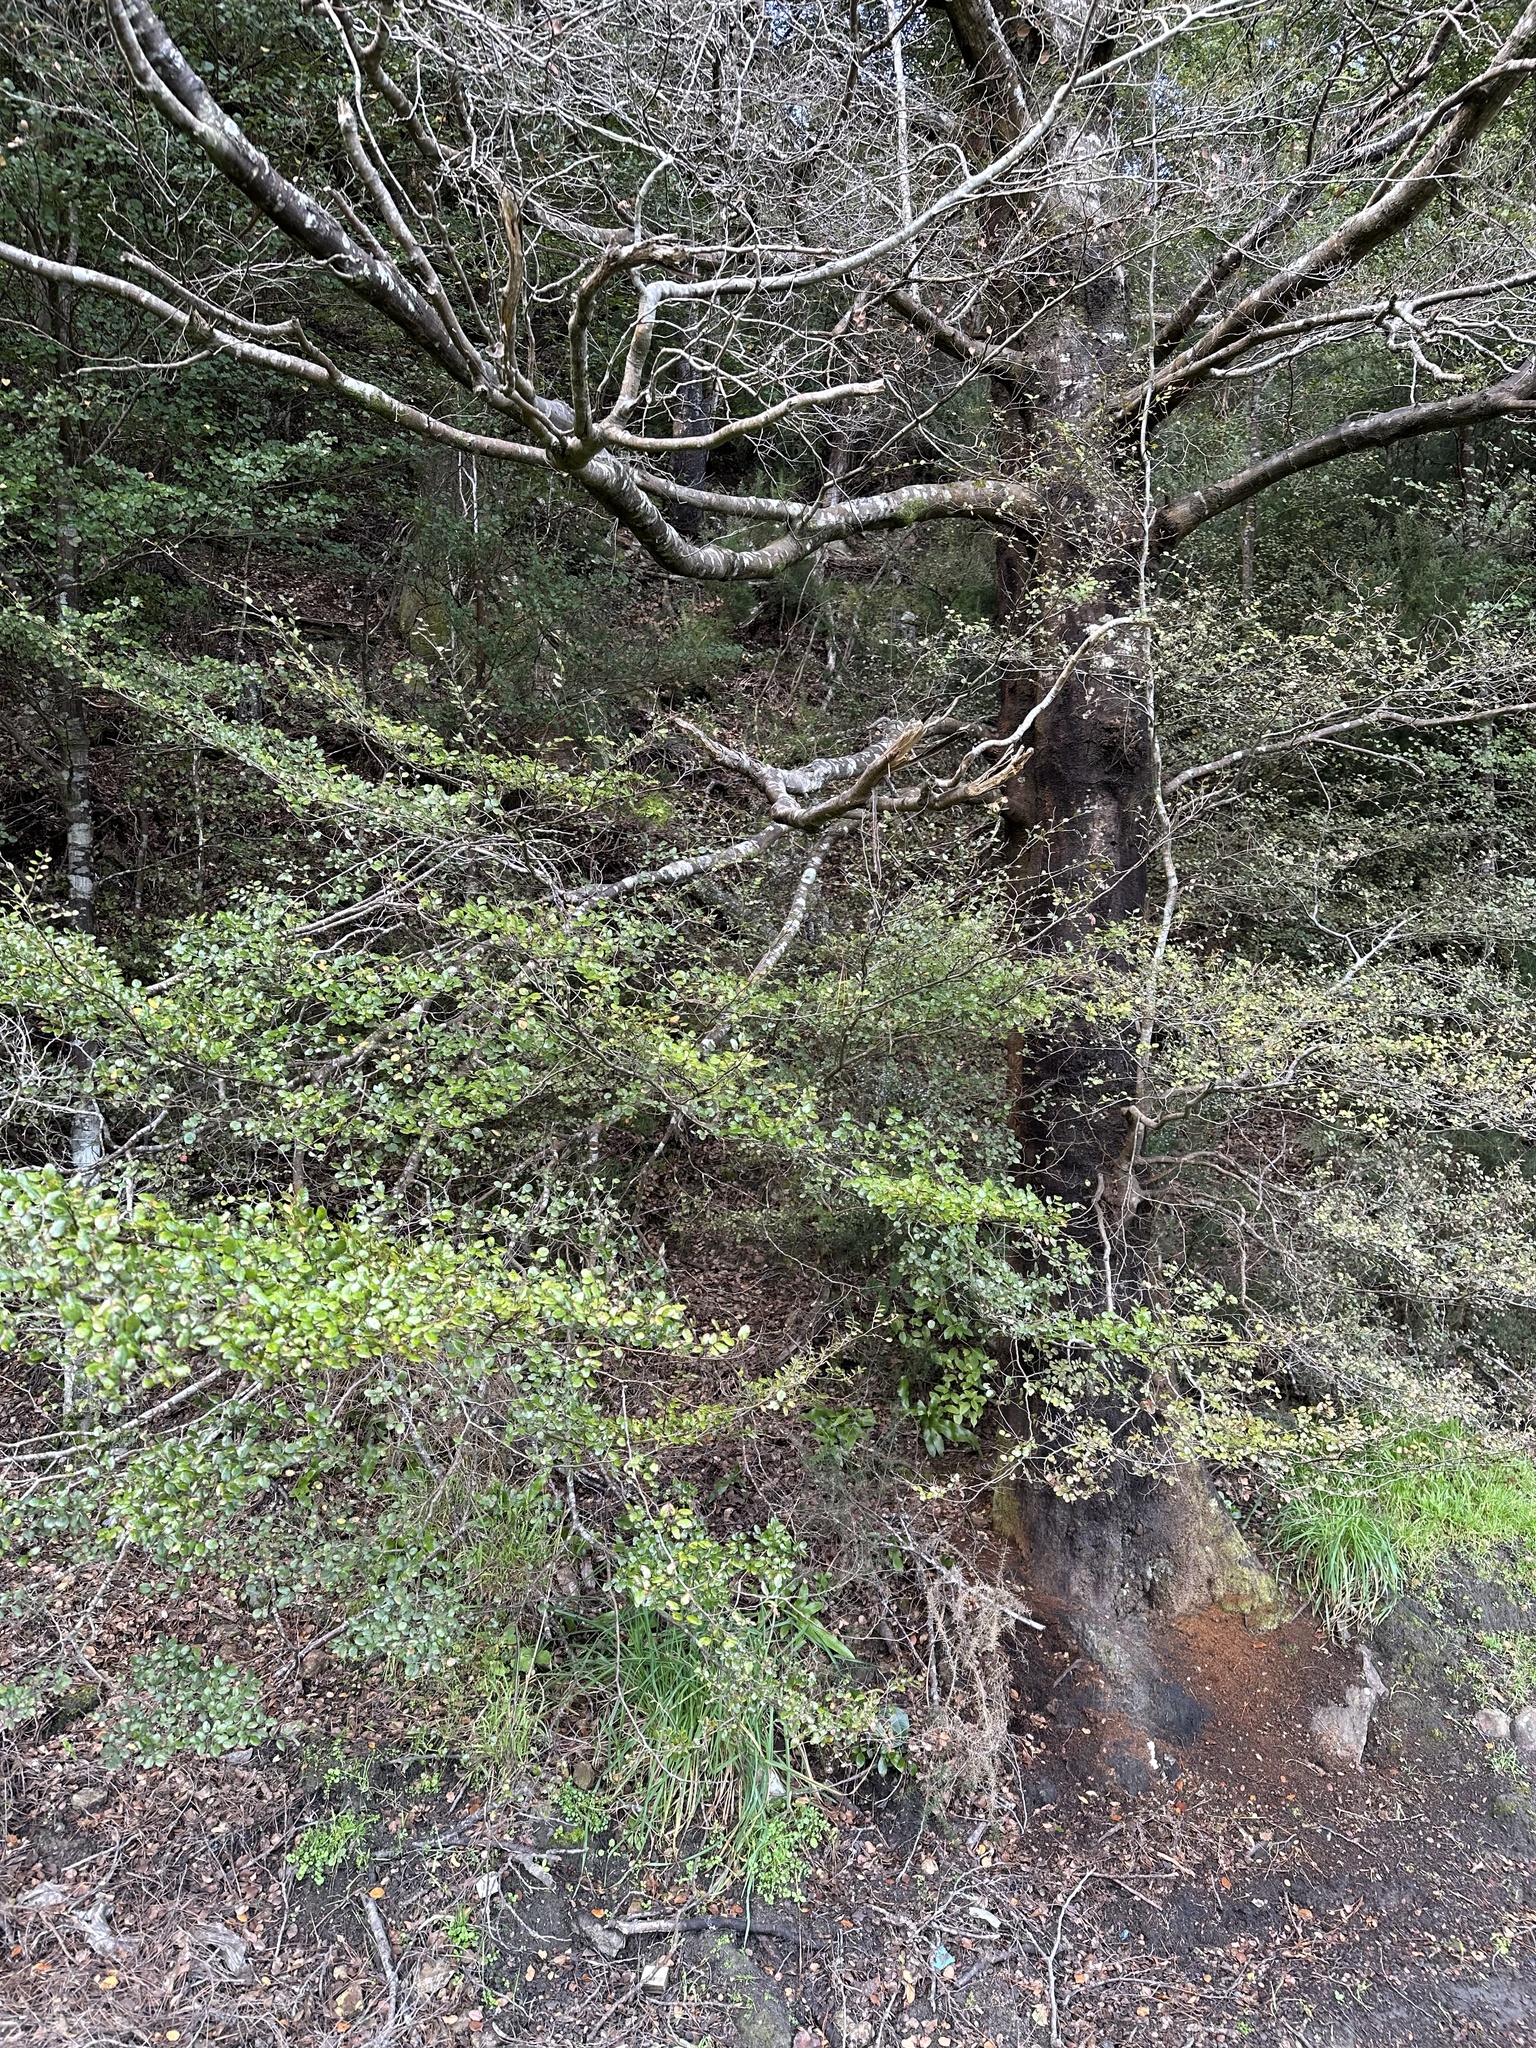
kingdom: Plantae
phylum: Tracheophyta
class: Magnoliopsida
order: Fagales
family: Nothofagaceae
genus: Nothofagus
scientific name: Nothofagus solandri
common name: Black beech
